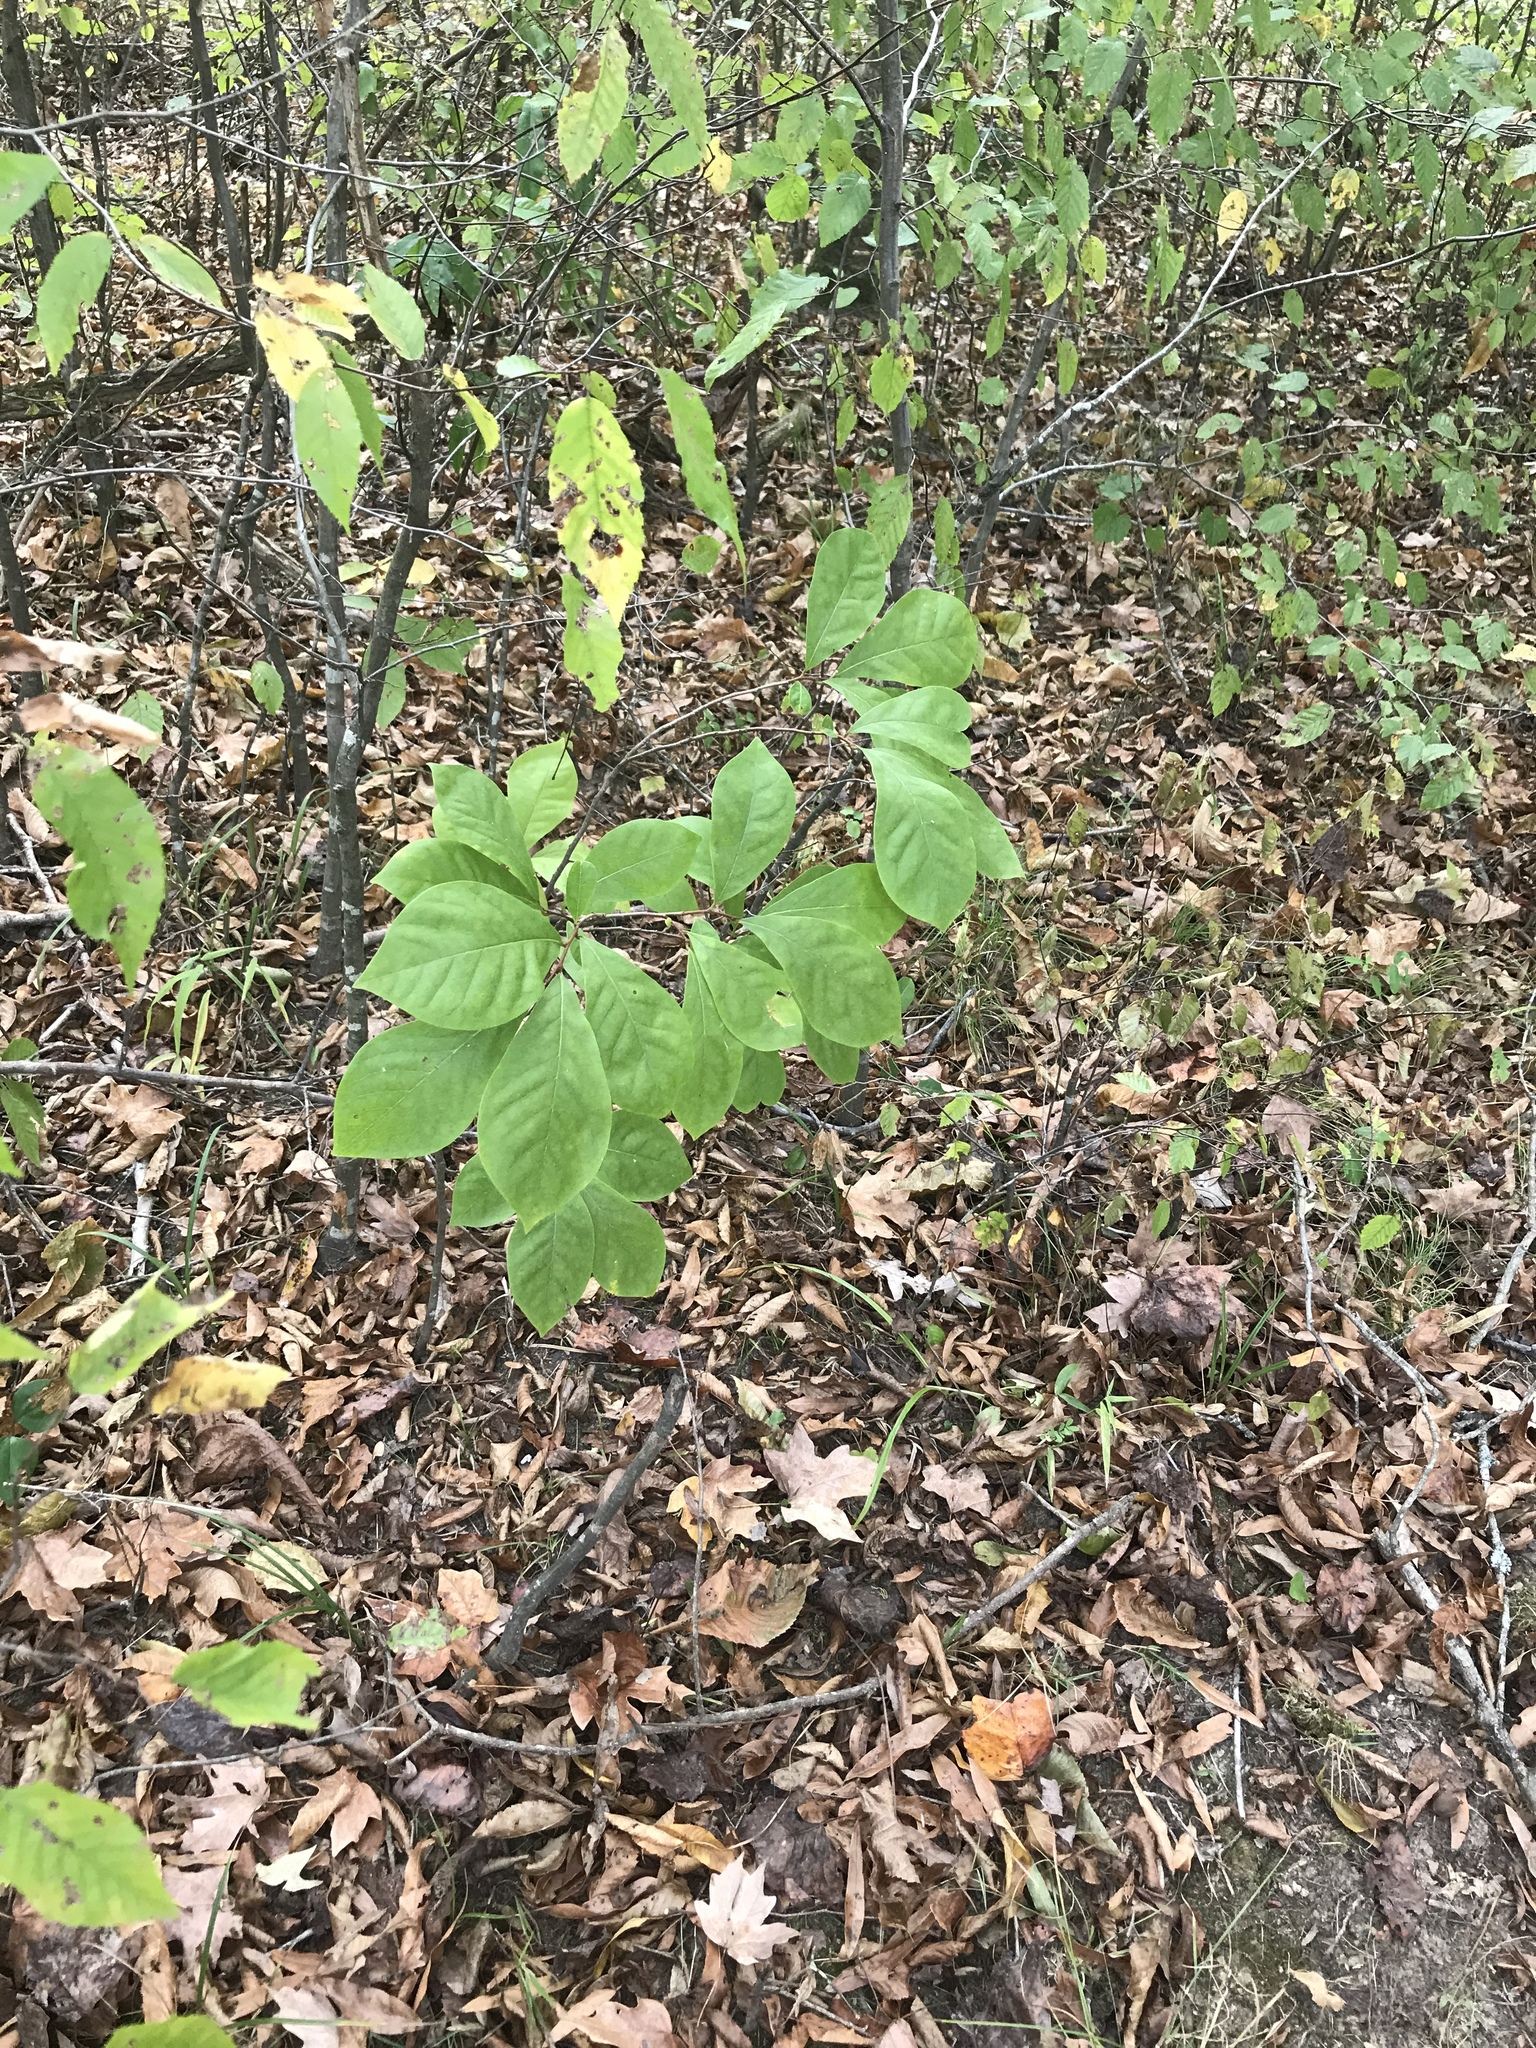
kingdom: Plantae
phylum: Tracheophyta
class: Magnoliopsida
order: Magnoliales
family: Annonaceae
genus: Asimina
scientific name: Asimina parviflora
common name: Dwarf pawpaw
